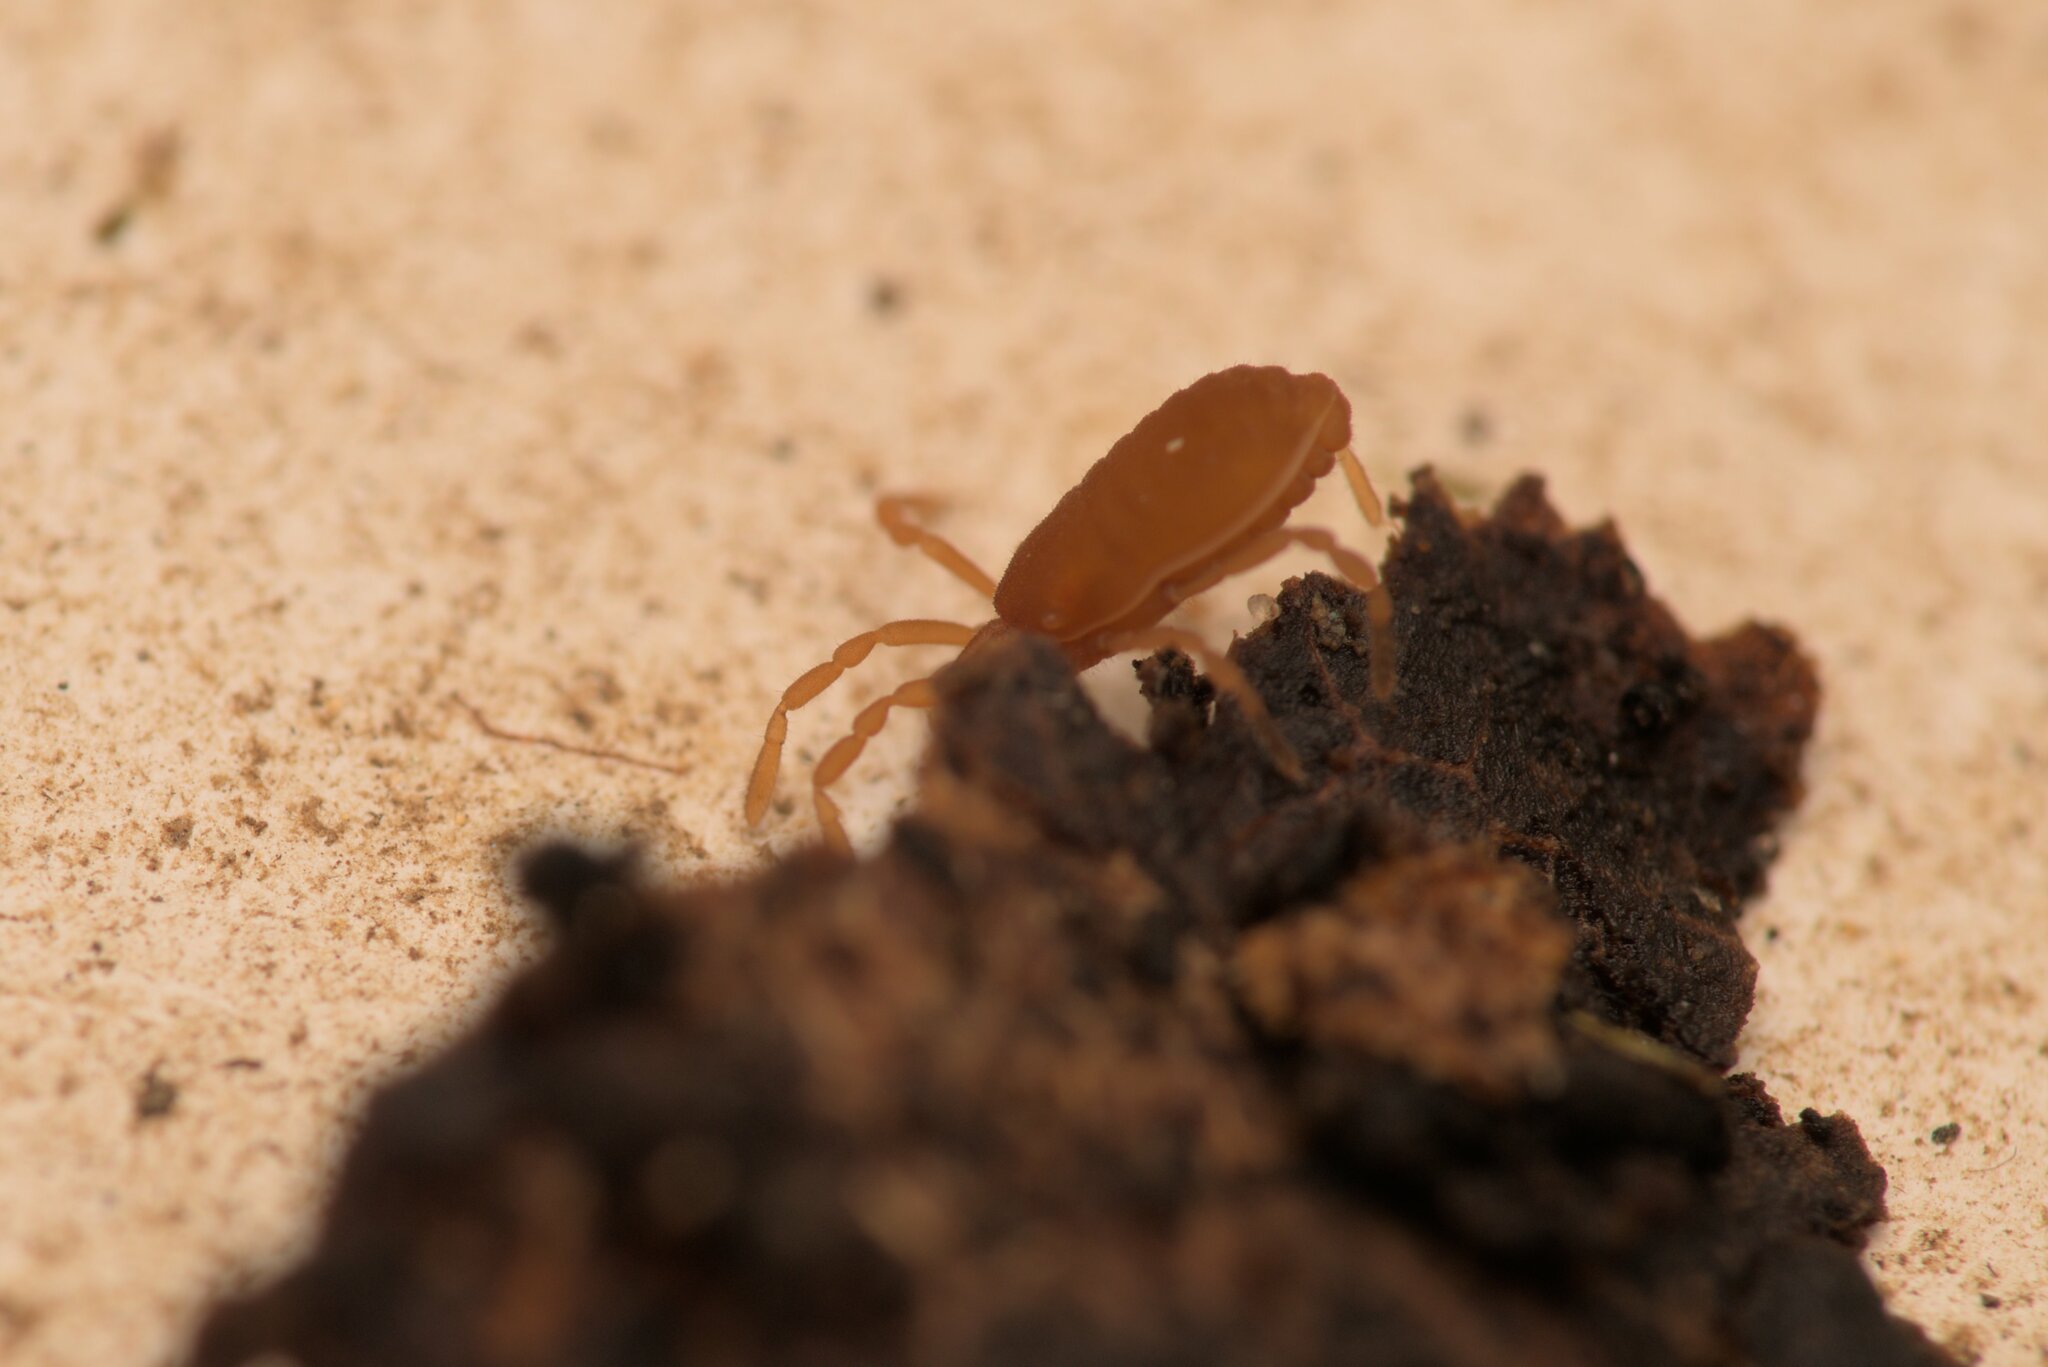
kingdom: Animalia
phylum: Arthropoda
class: Arachnida
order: Opiliones
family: Sironidae
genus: Siro
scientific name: Siro rubens
